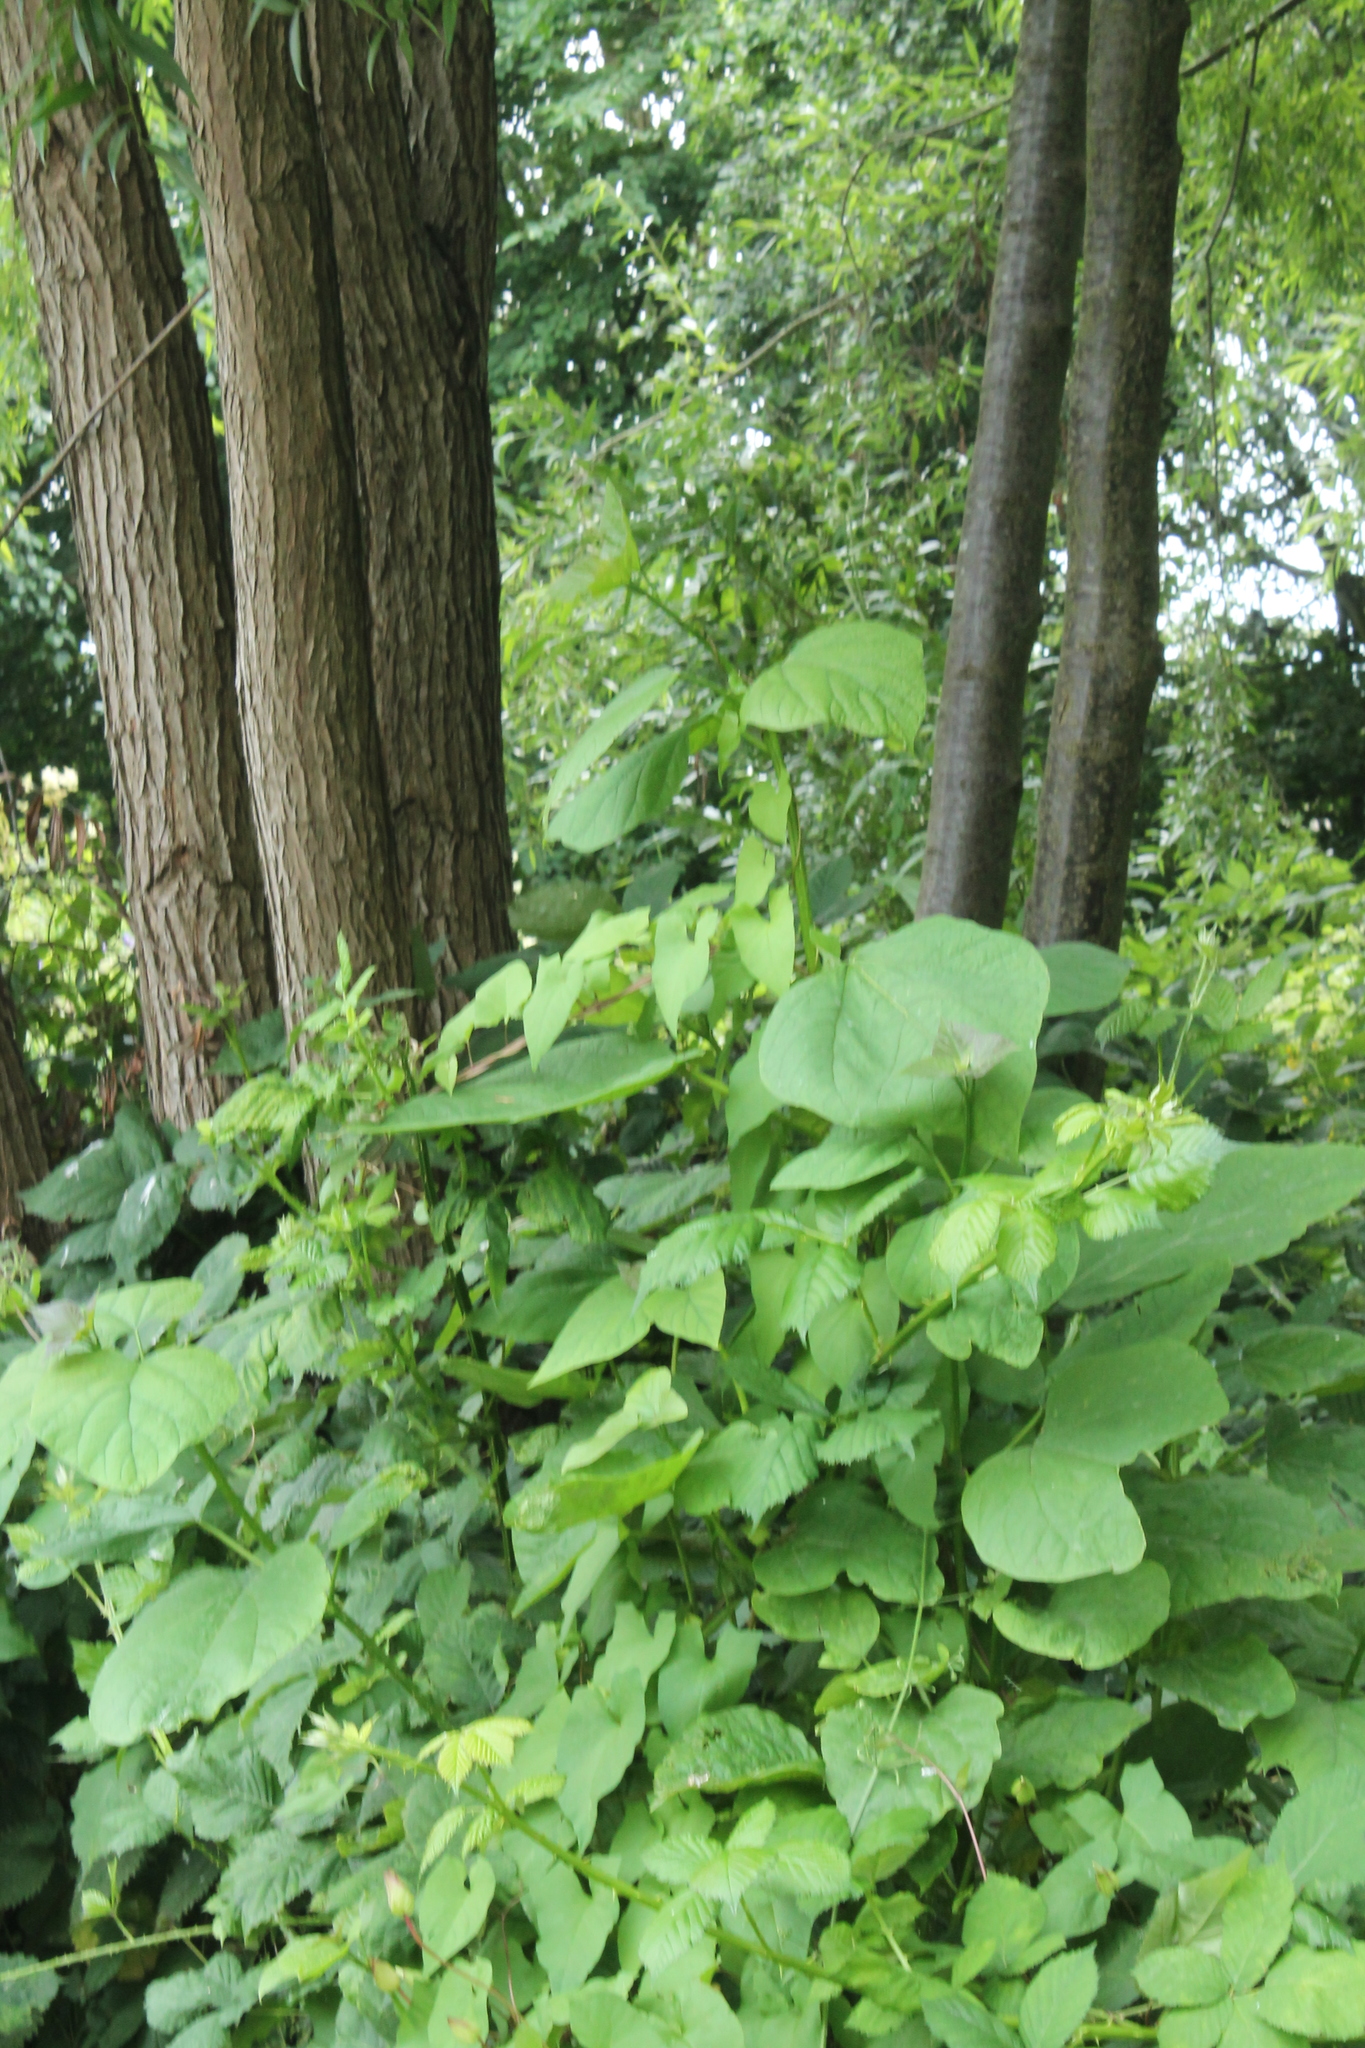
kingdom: Plantae
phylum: Tracheophyta
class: Magnoliopsida
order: Lamiales
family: Bignoniaceae
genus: Catalpa
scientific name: Catalpa bignonioides
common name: Southern catalpa
